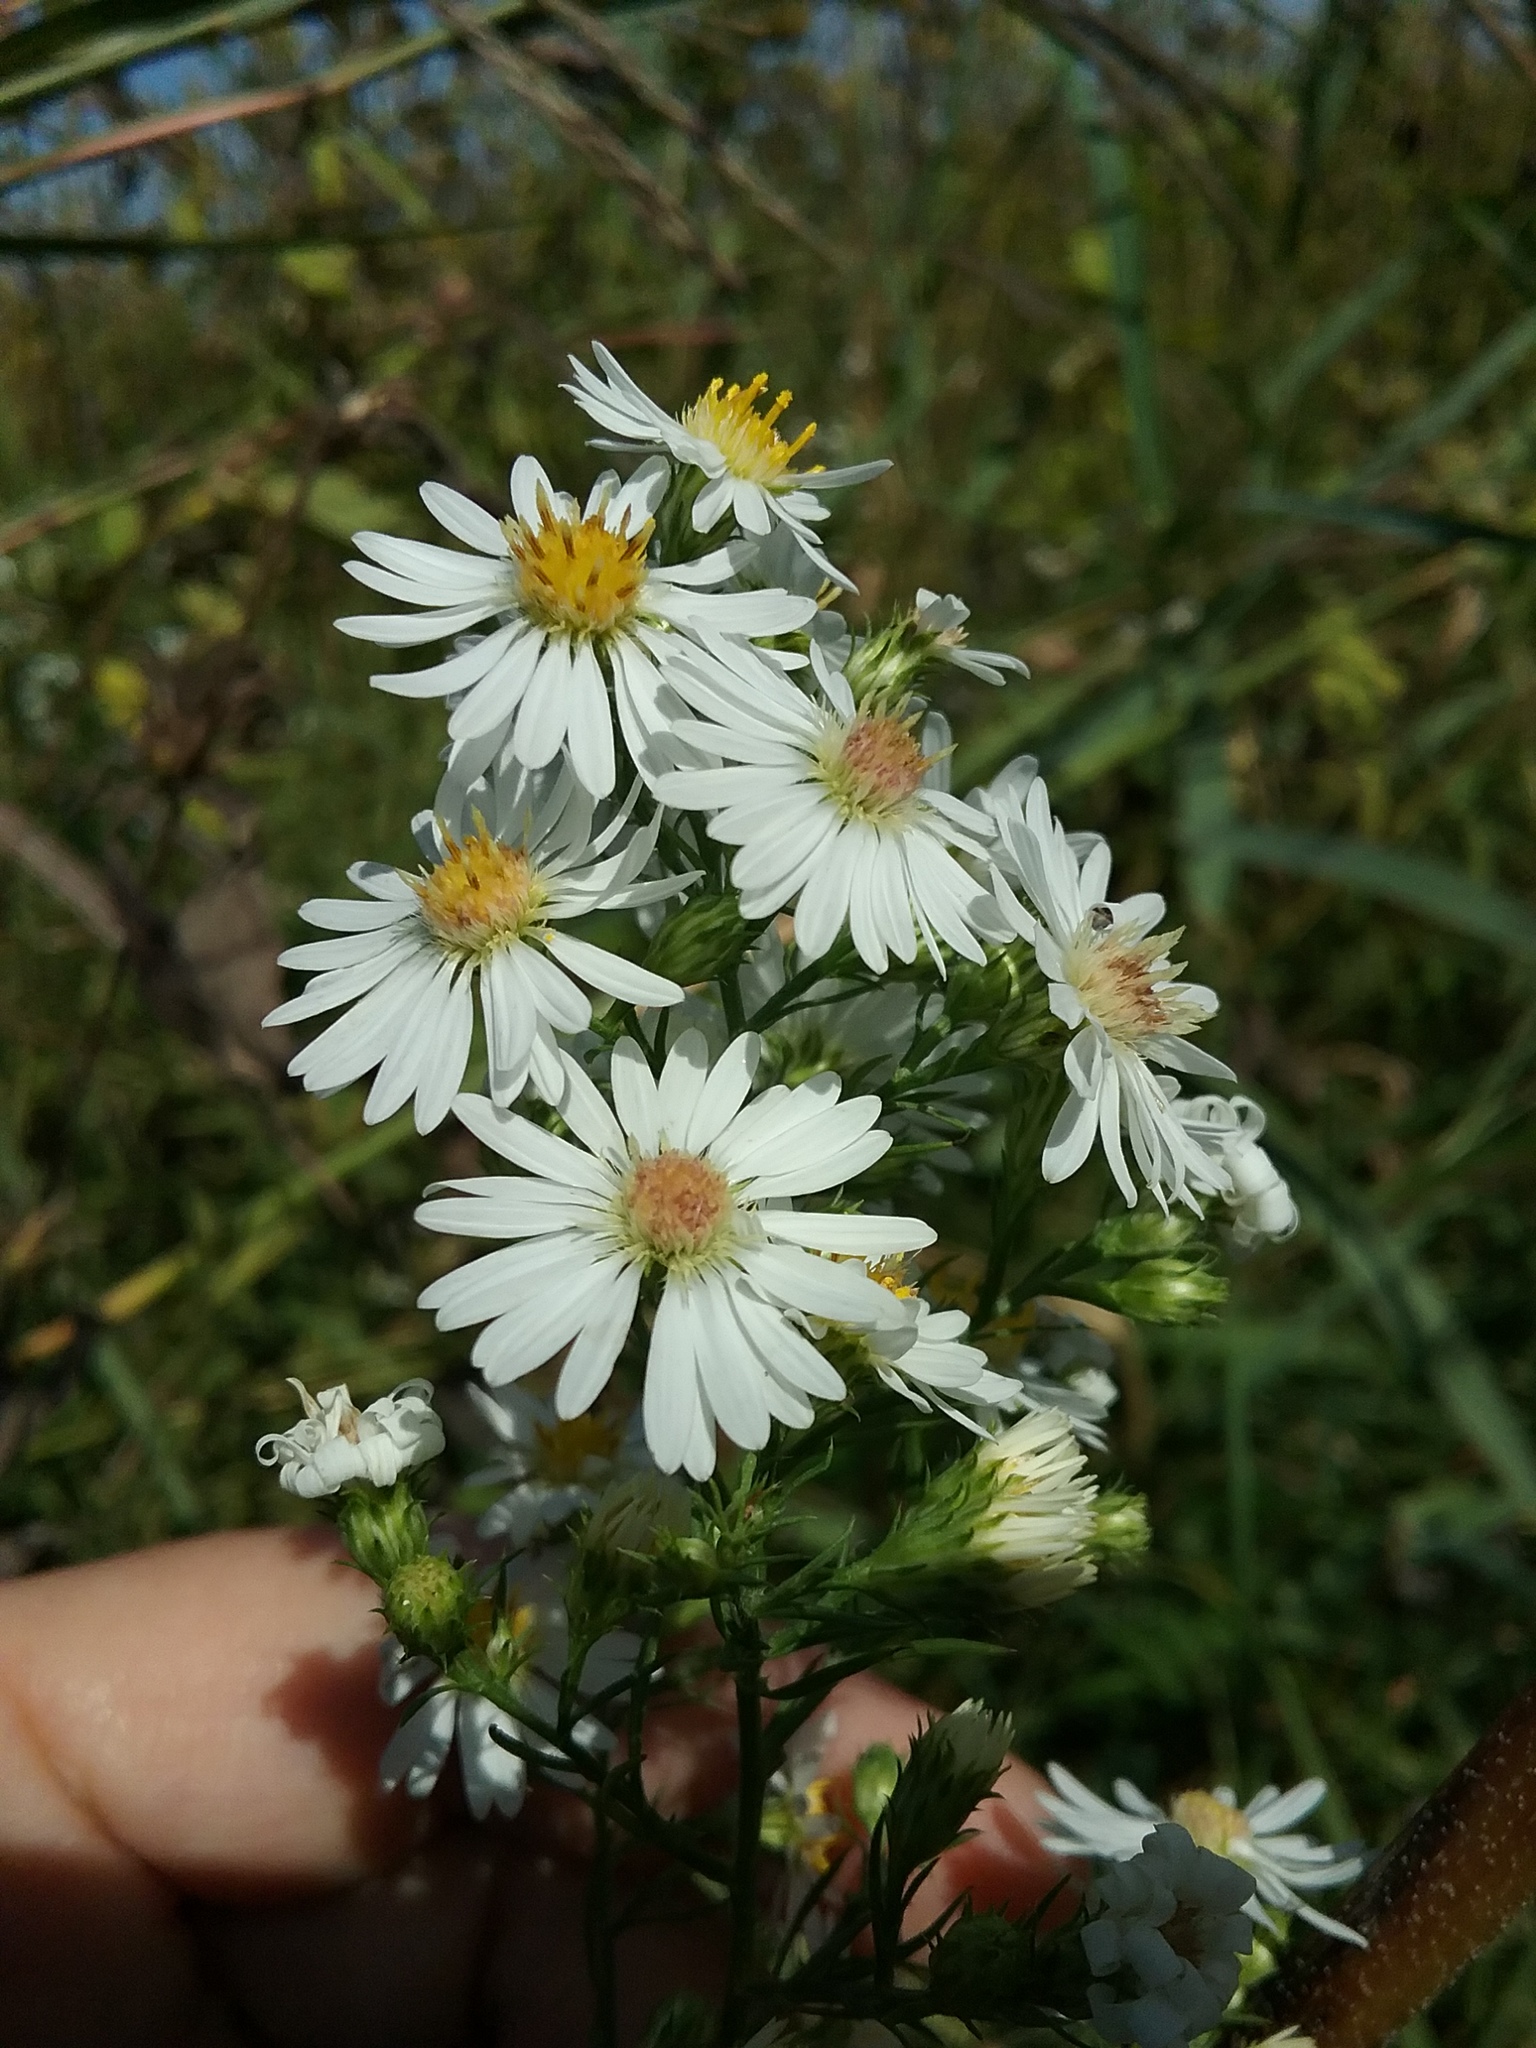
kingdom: Plantae
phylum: Tracheophyta
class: Magnoliopsida
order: Asterales
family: Asteraceae
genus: Symphyotrichum
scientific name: Symphyotrichum pilosum
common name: Awl aster
